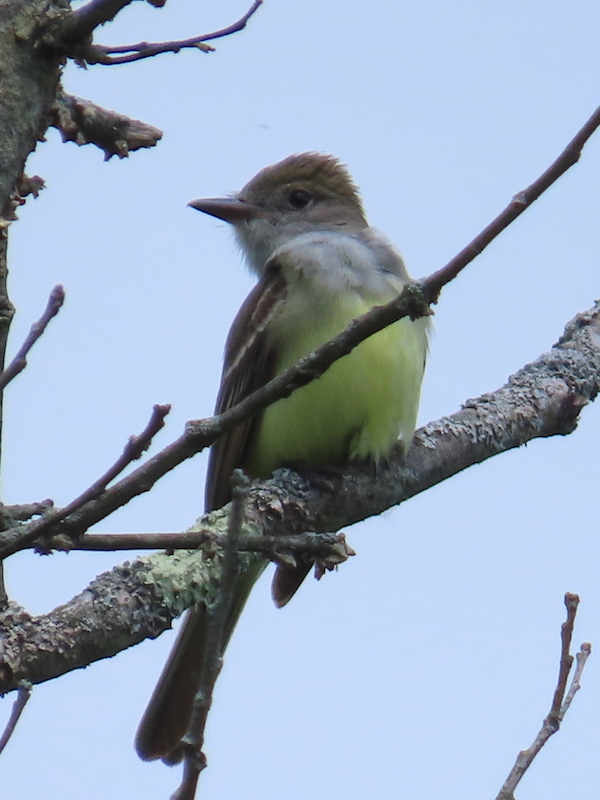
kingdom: Animalia
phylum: Chordata
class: Aves
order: Passeriformes
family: Tyrannidae
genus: Myiarchus
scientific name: Myiarchus crinitus
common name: Great crested flycatcher
